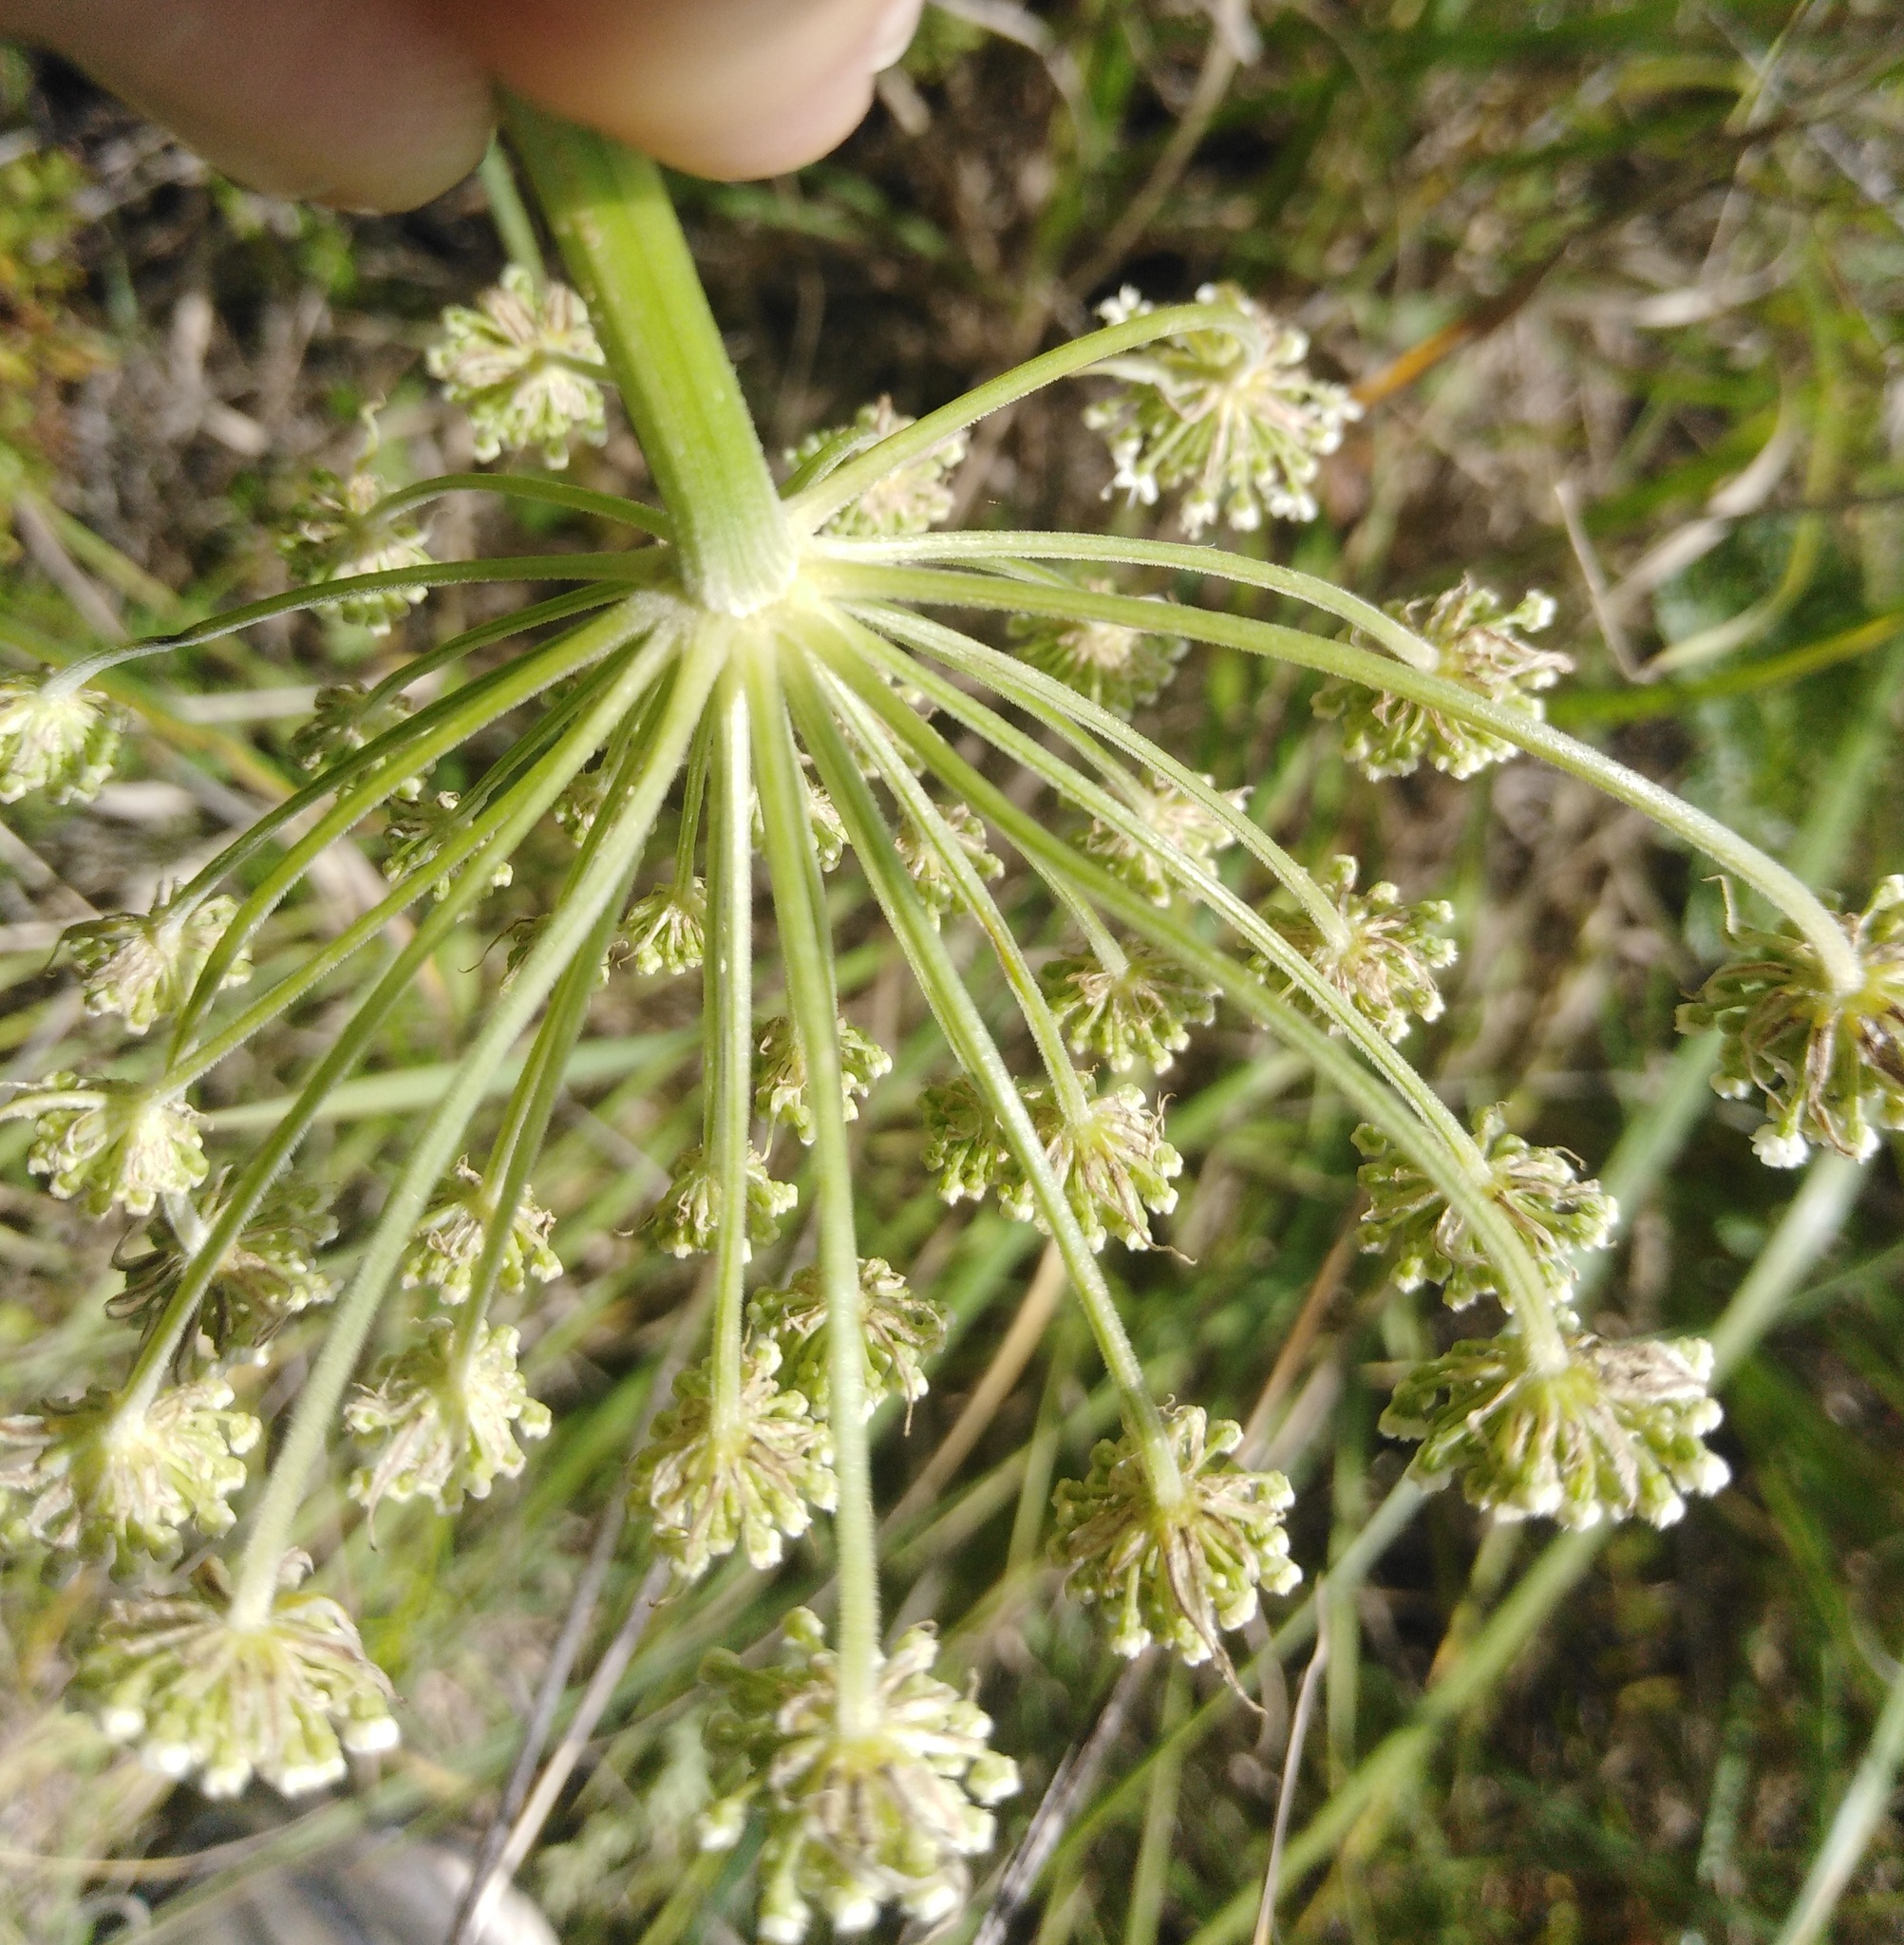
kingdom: Plantae
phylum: Tracheophyta
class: Magnoliopsida
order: Apiales
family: Apiaceae
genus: Seseli
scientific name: Seseli annuum
